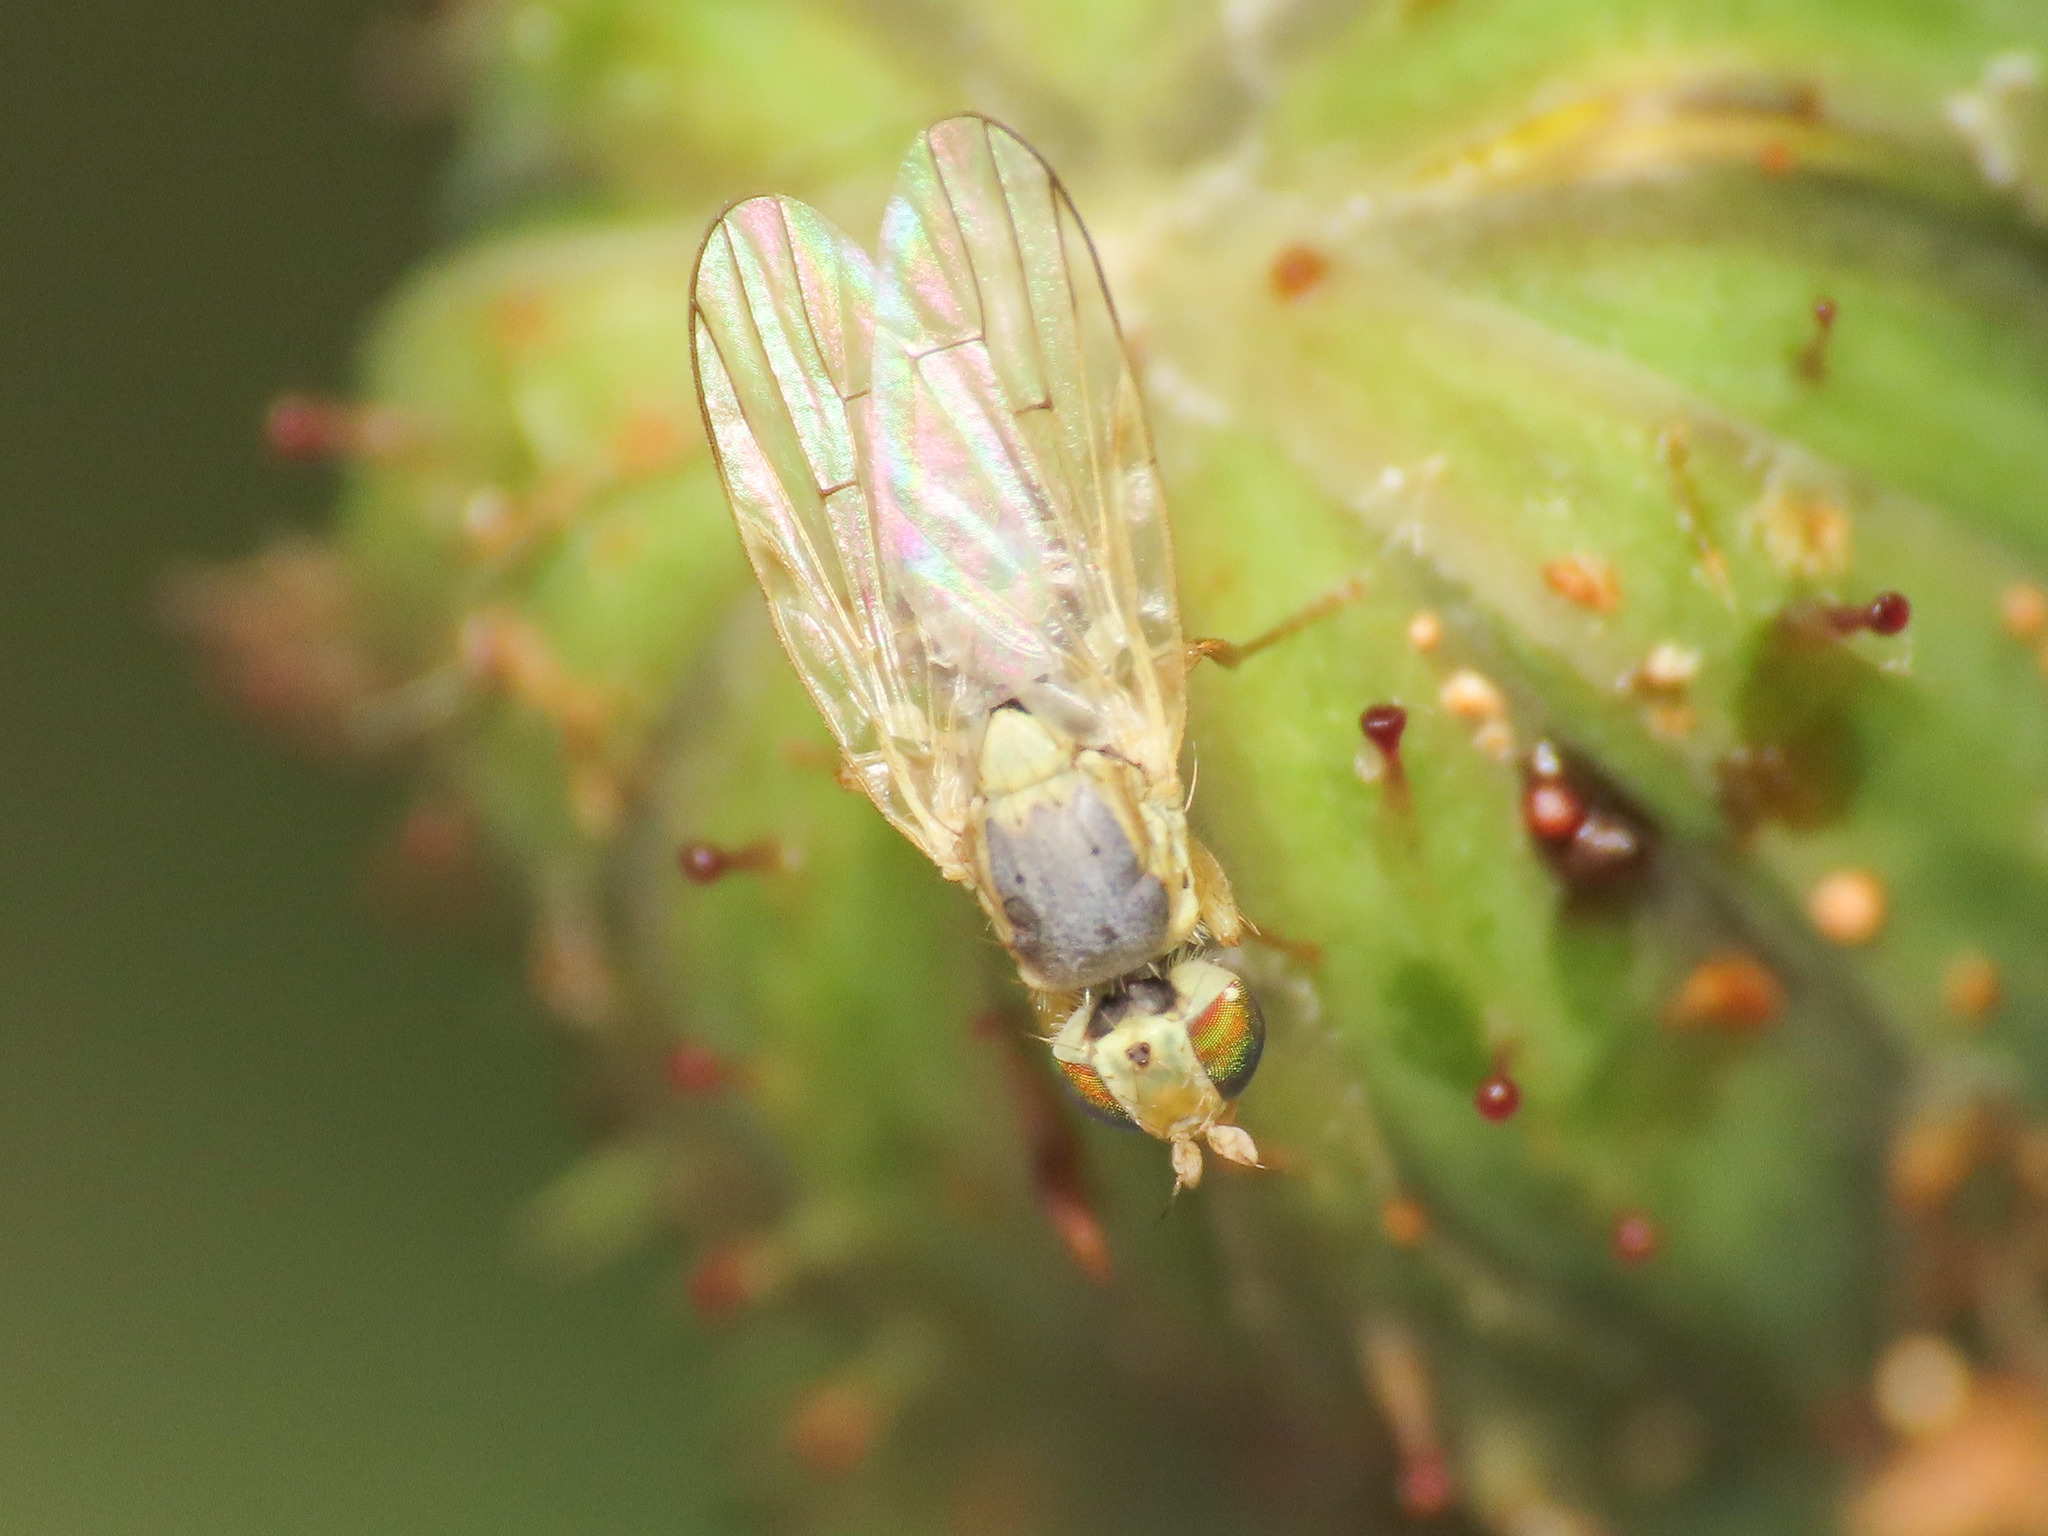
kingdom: Animalia
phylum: Arthropoda
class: Insecta
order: Diptera
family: Tephritidae
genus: Ensina
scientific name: Ensina sonchi
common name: Sonchus fly
